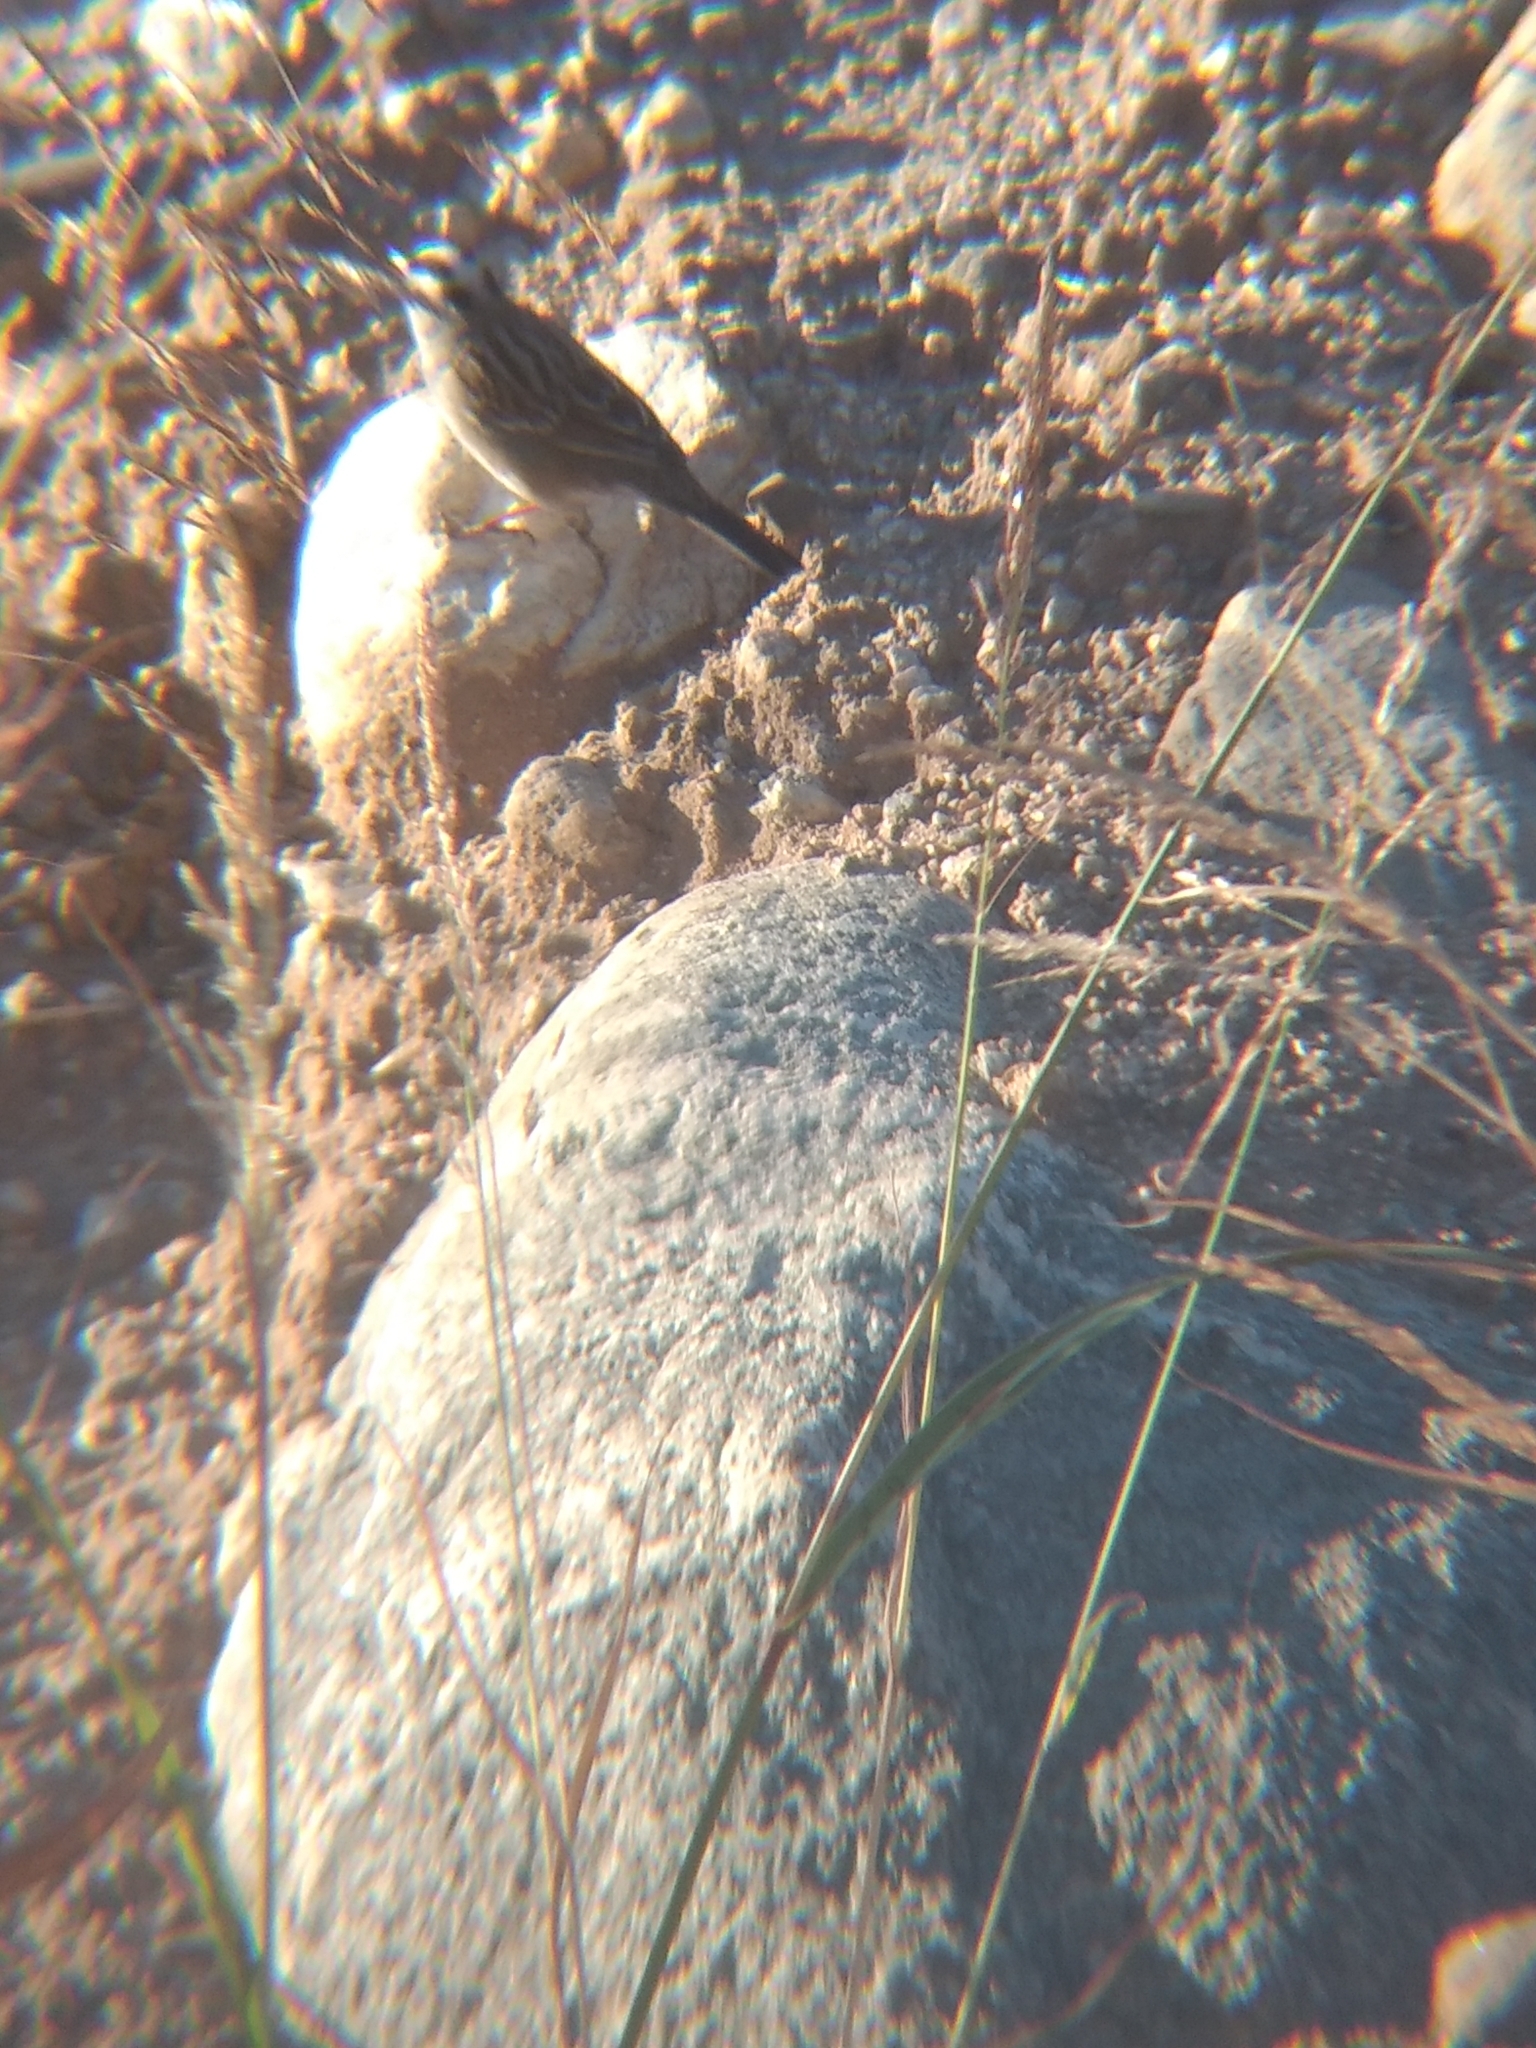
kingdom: Animalia
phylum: Chordata
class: Aves
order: Passeriformes
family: Passerellidae
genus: Zonotrichia
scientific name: Zonotrichia leucophrys
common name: White-crowned sparrow
